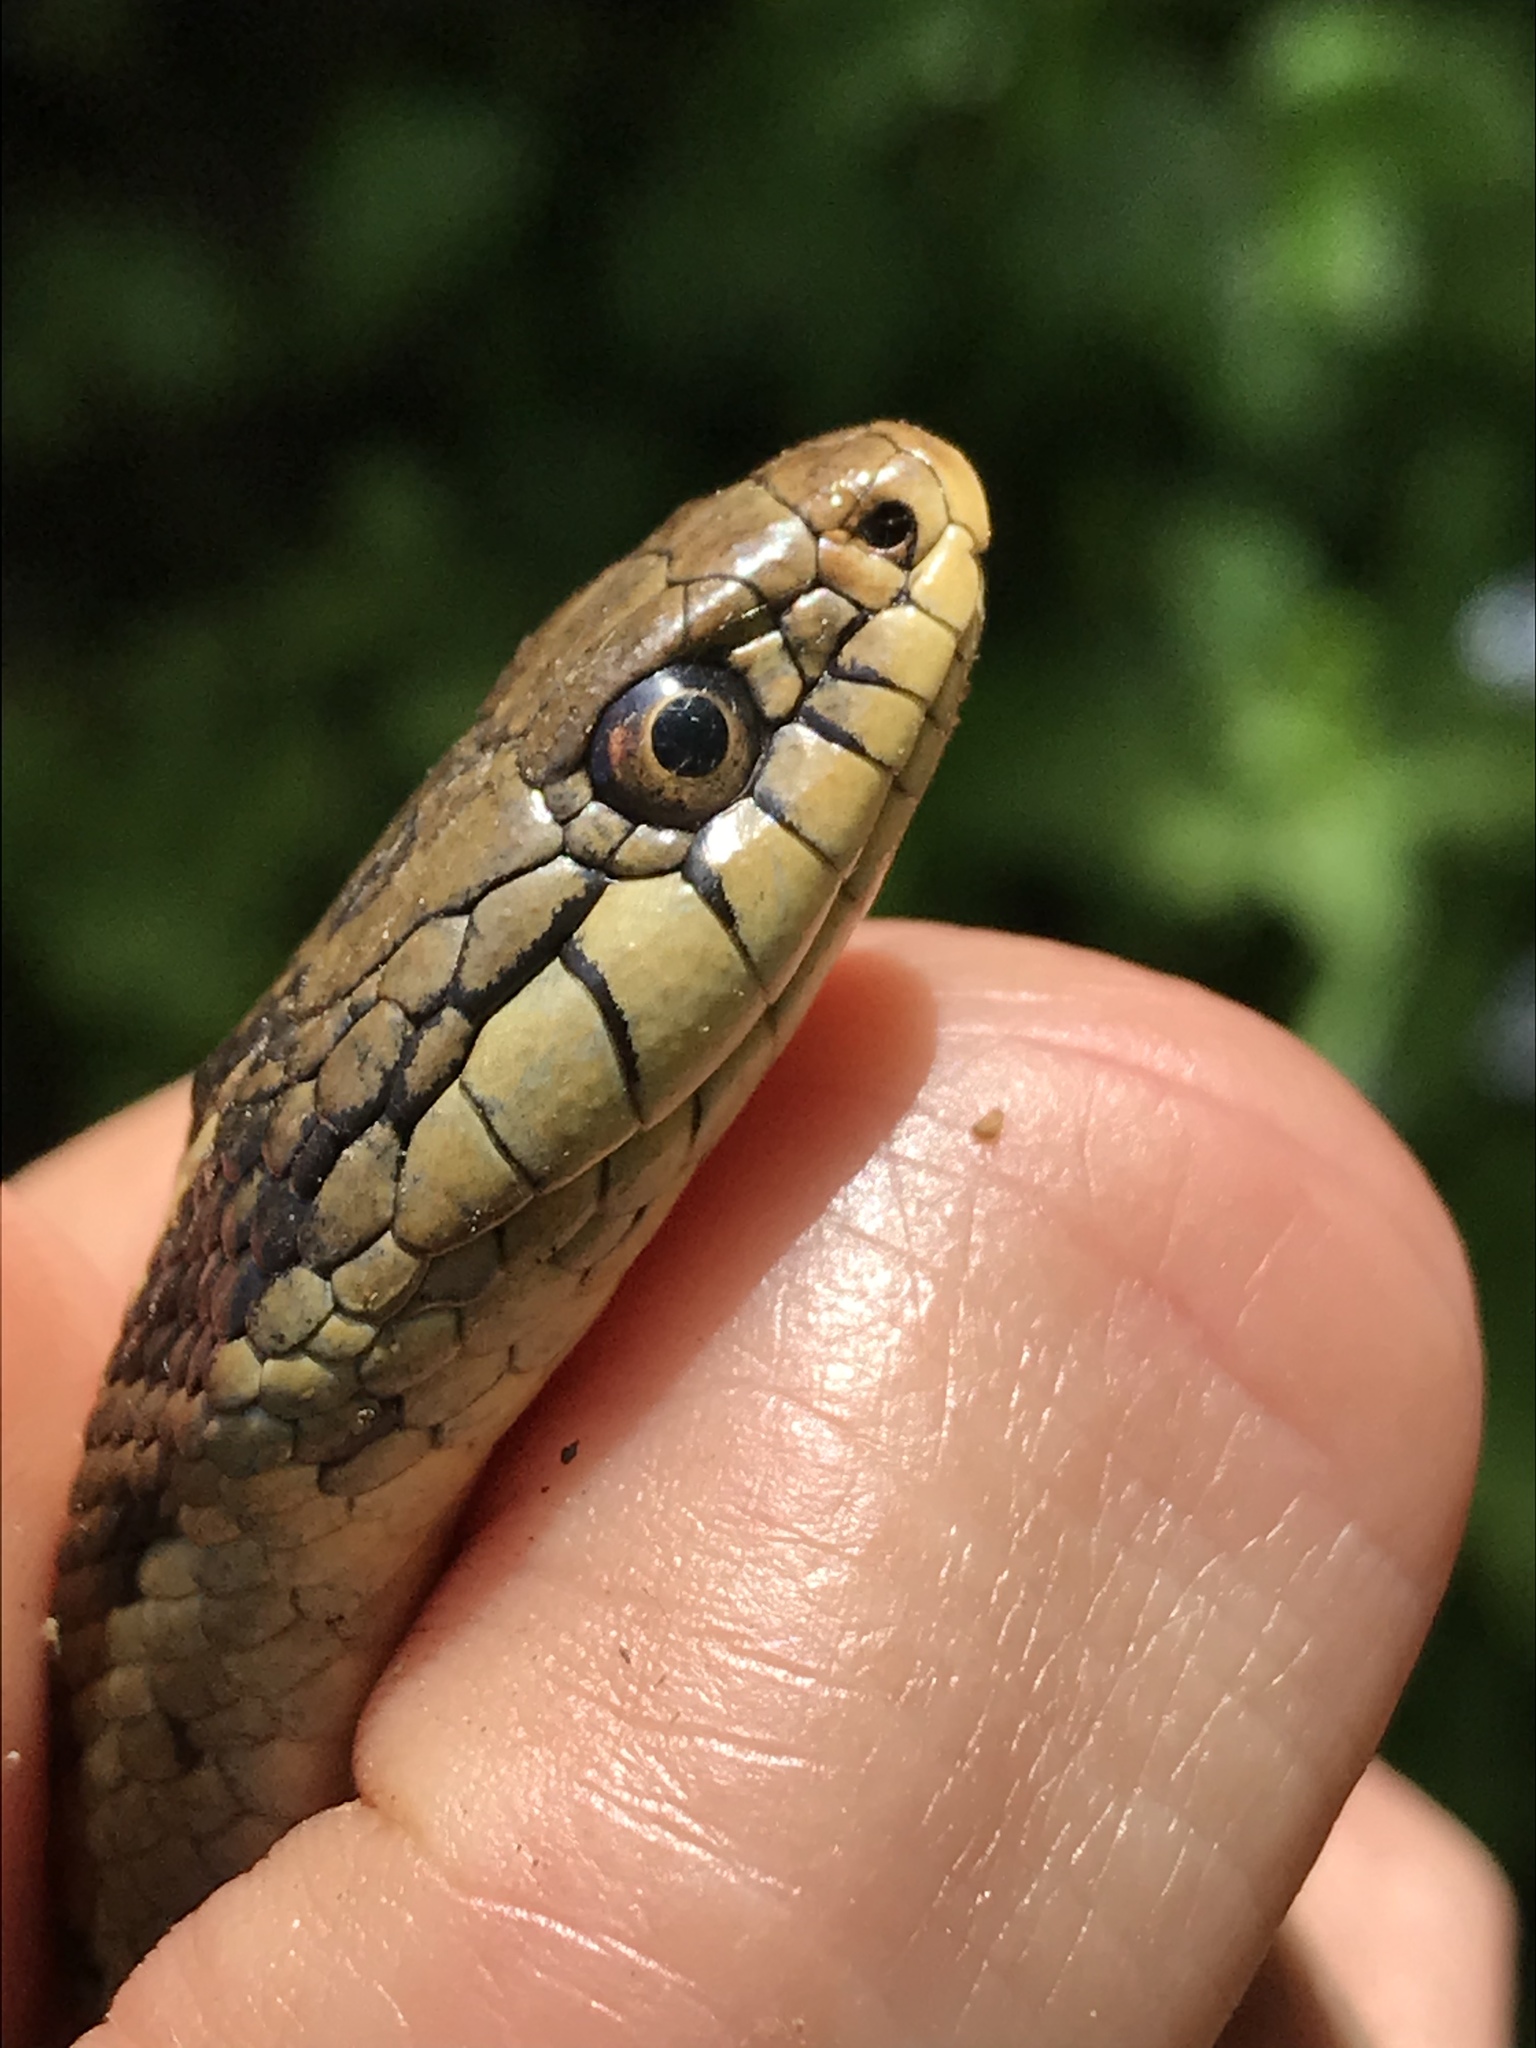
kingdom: Animalia
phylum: Chordata
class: Squamata
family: Colubridae
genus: Thamnophis
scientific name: Thamnophis elegans
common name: Western terrestrial garter snake
